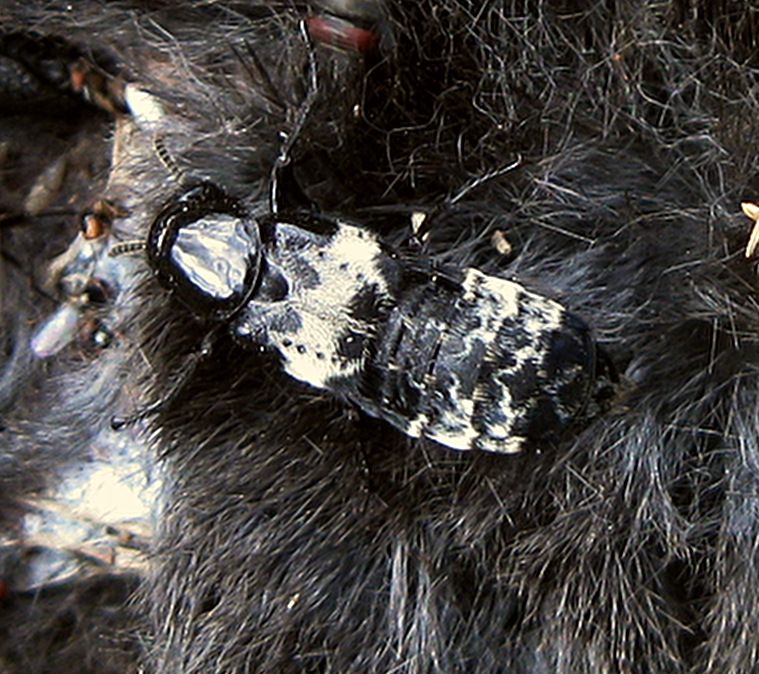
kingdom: Animalia
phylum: Arthropoda
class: Insecta
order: Coleoptera
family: Staphylinidae
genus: Creophilus
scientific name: Creophilus maxillosus
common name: Hairy rove beetle
